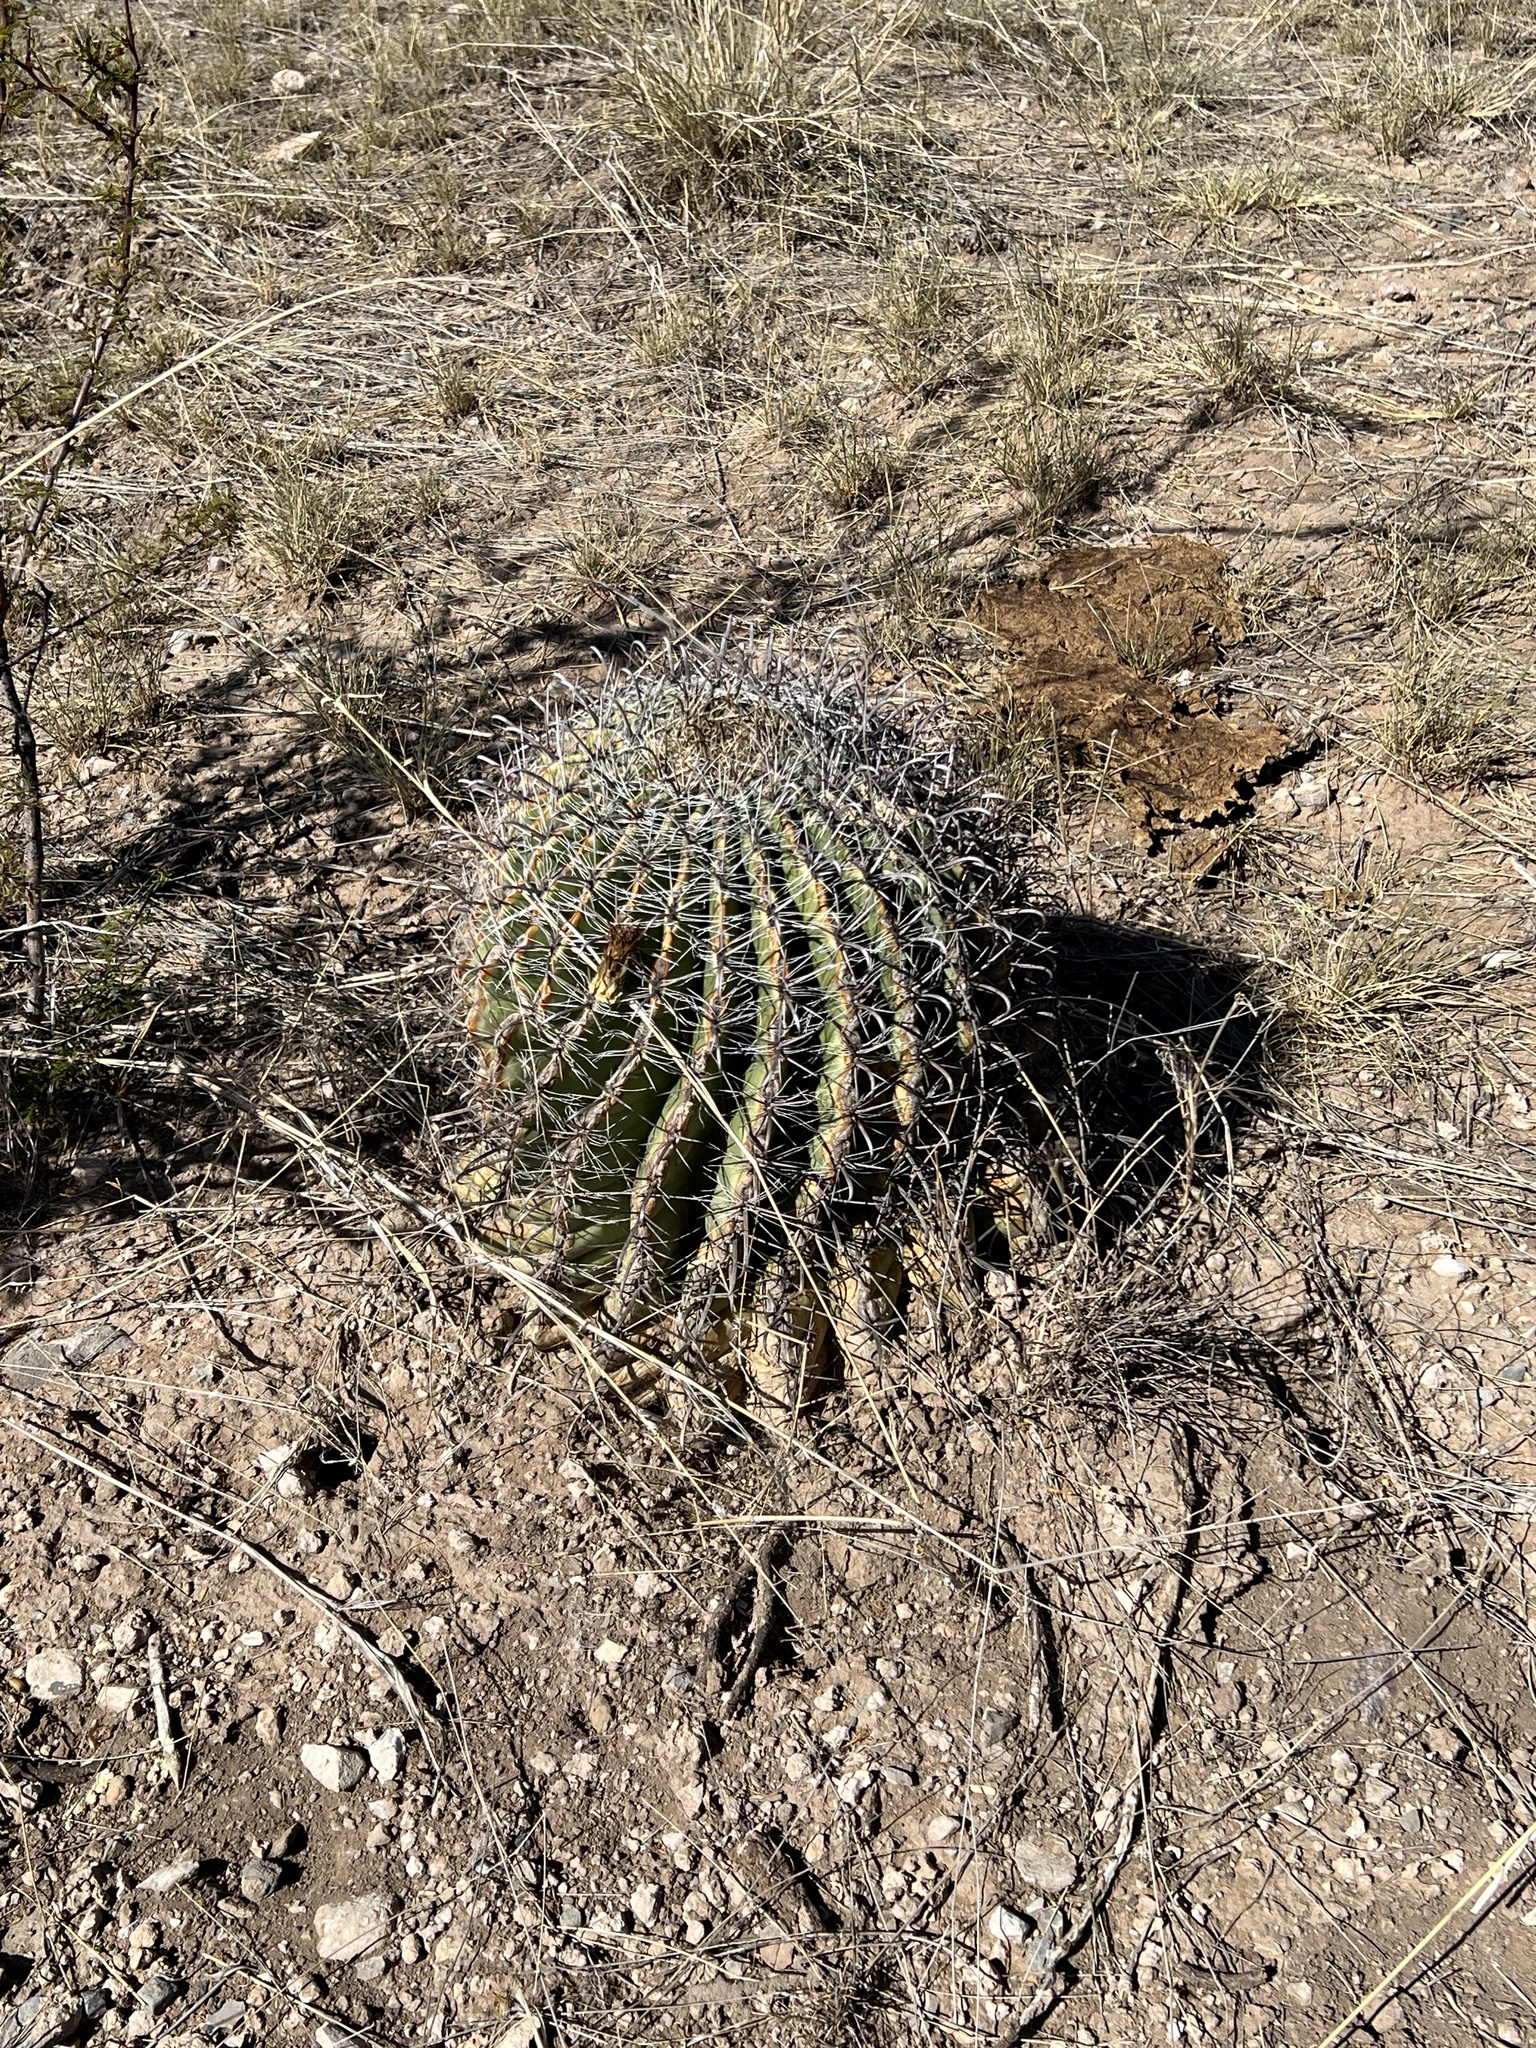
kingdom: Plantae
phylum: Tracheophyta
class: Magnoliopsida
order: Caryophyllales
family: Cactaceae
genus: Ferocactus
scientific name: Ferocactus wislizeni
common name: Candy barrel cactus
